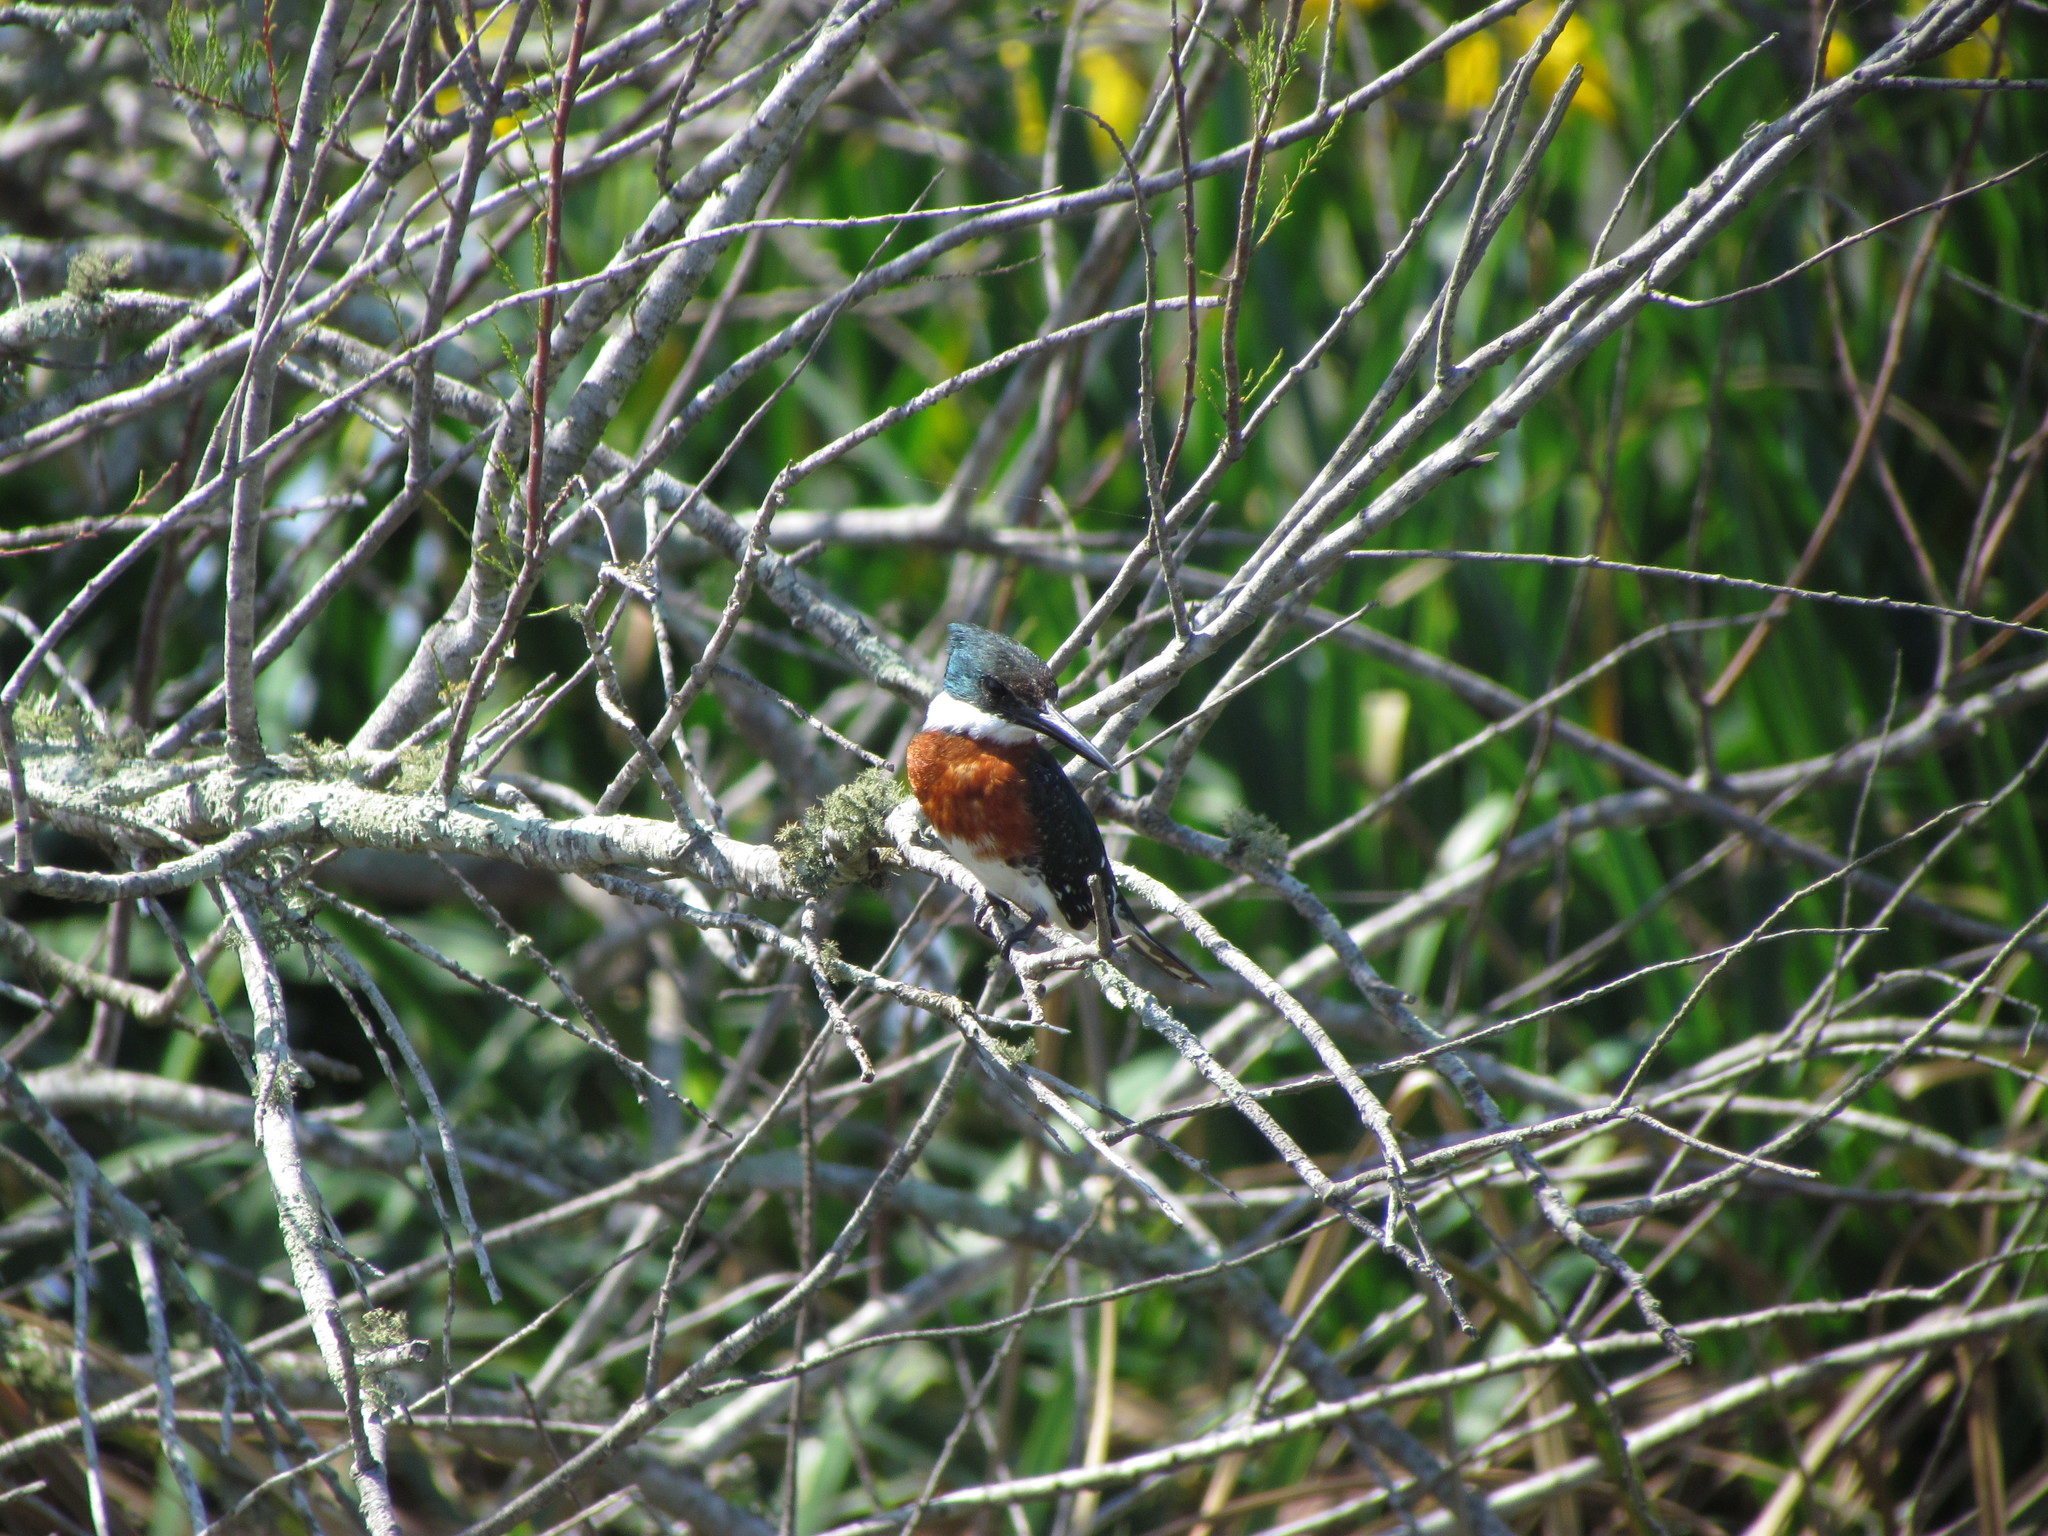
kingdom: Animalia
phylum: Chordata
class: Aves
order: Coraciiformes
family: Alcedinidae
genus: Chloroceryle
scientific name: Chloroceryle americana
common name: Green kingfisher
